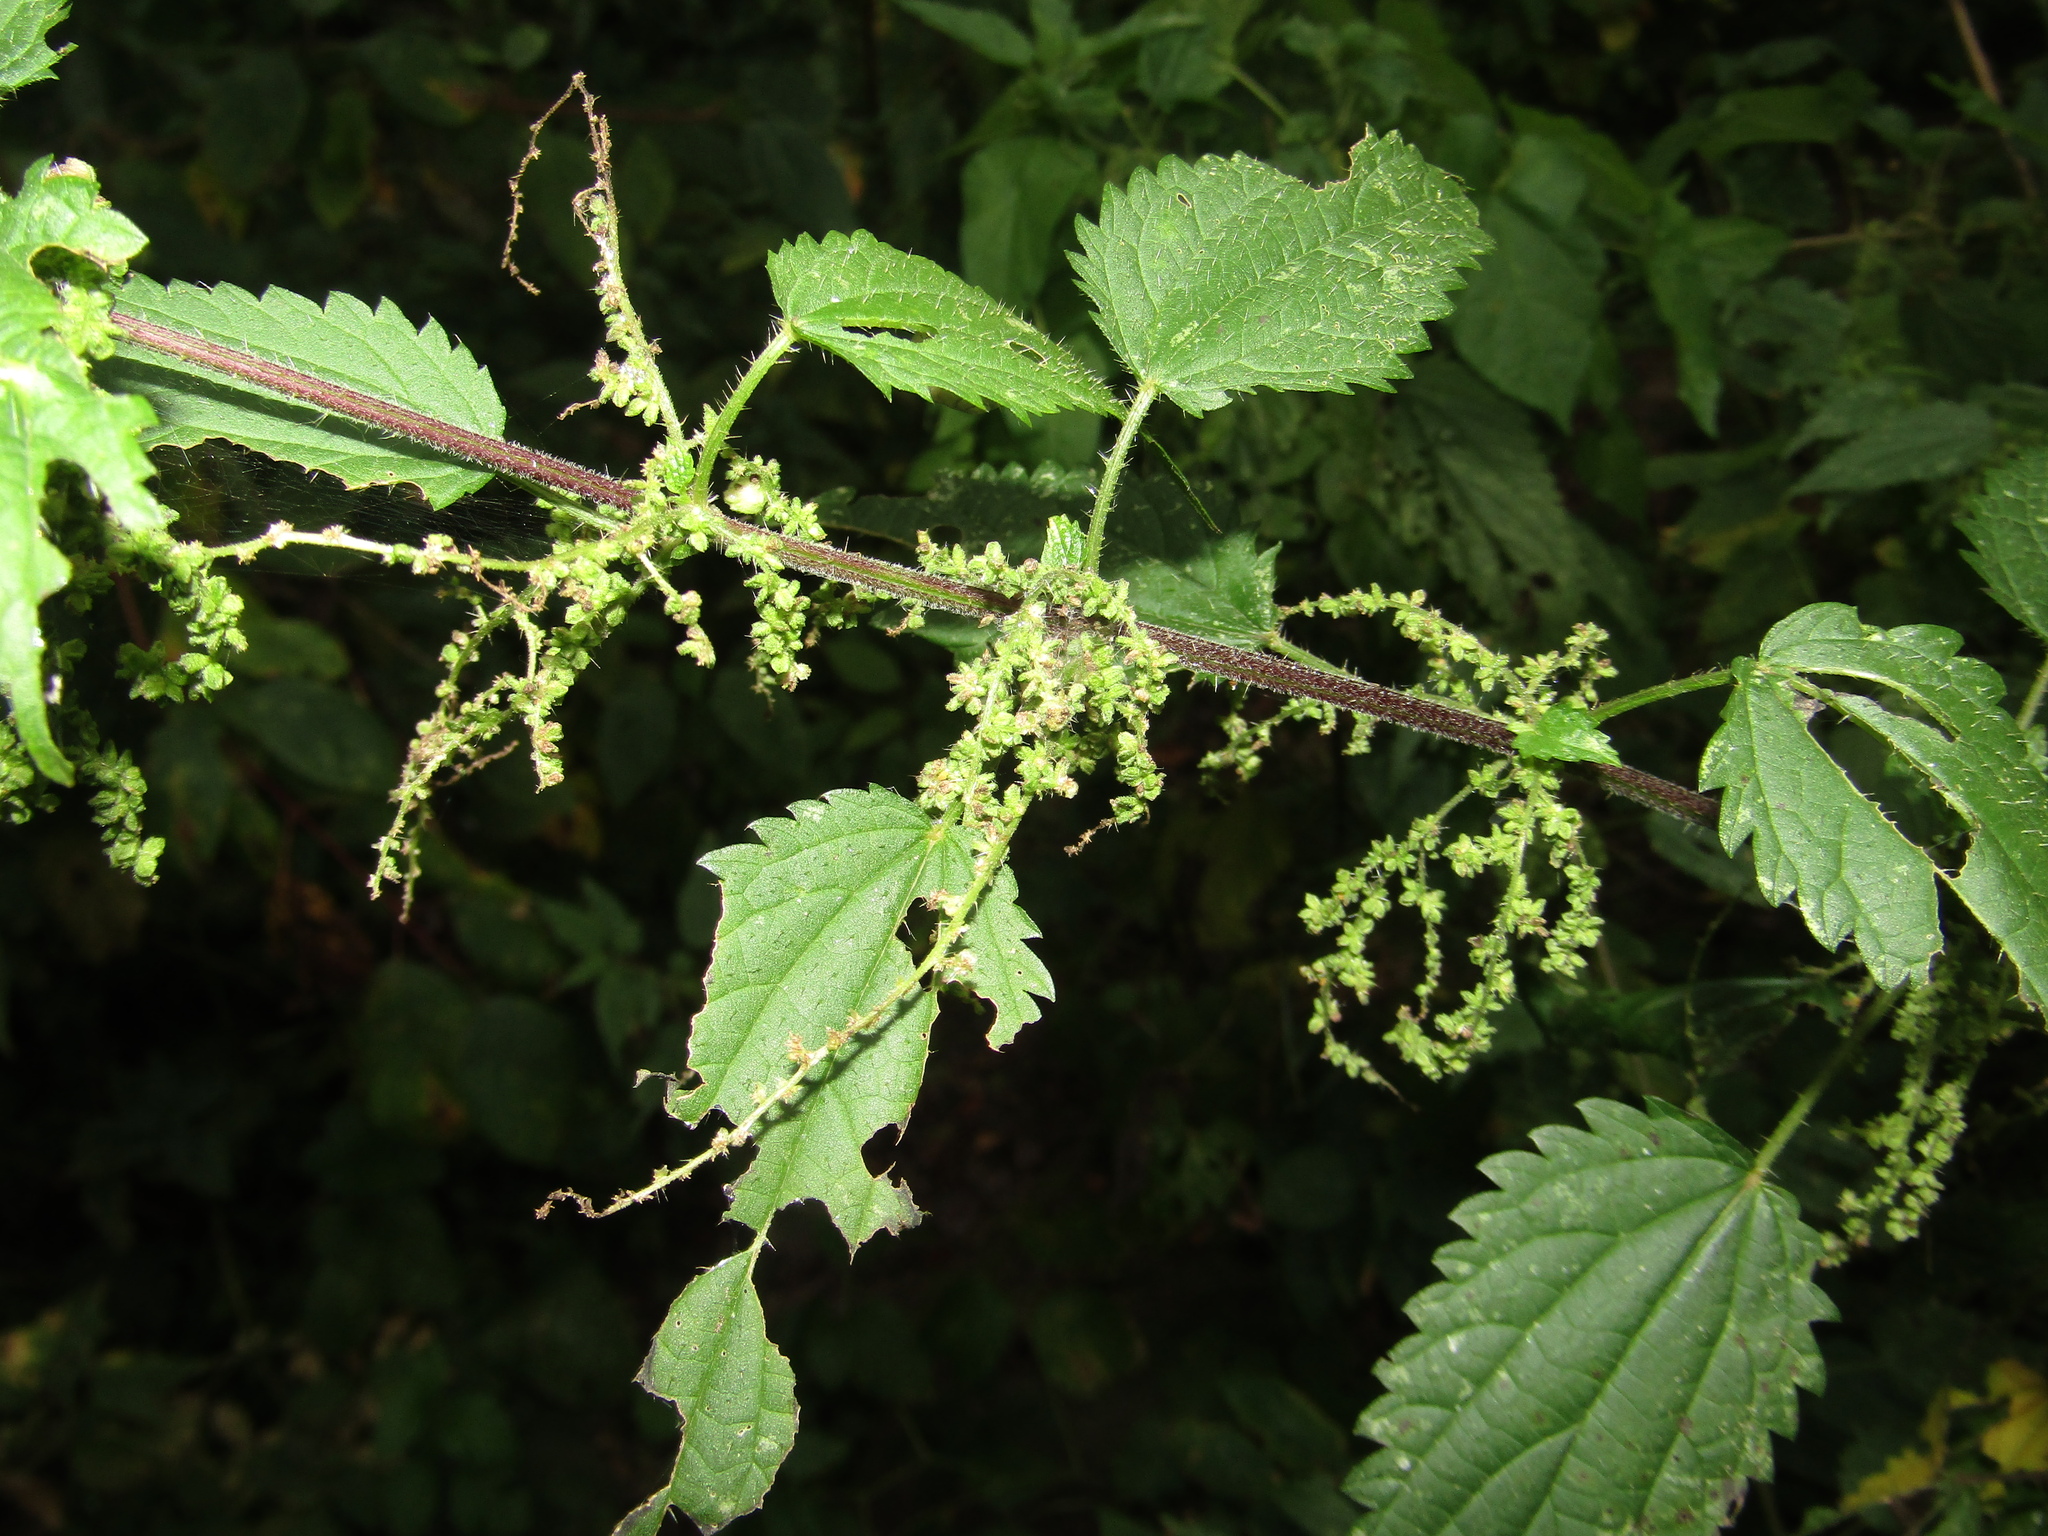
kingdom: Plantae
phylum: Tracheophyta
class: Magnoliopsida
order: Rosales
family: Urticaceae
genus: Urtica
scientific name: Urtica dioica
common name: Common nettle
